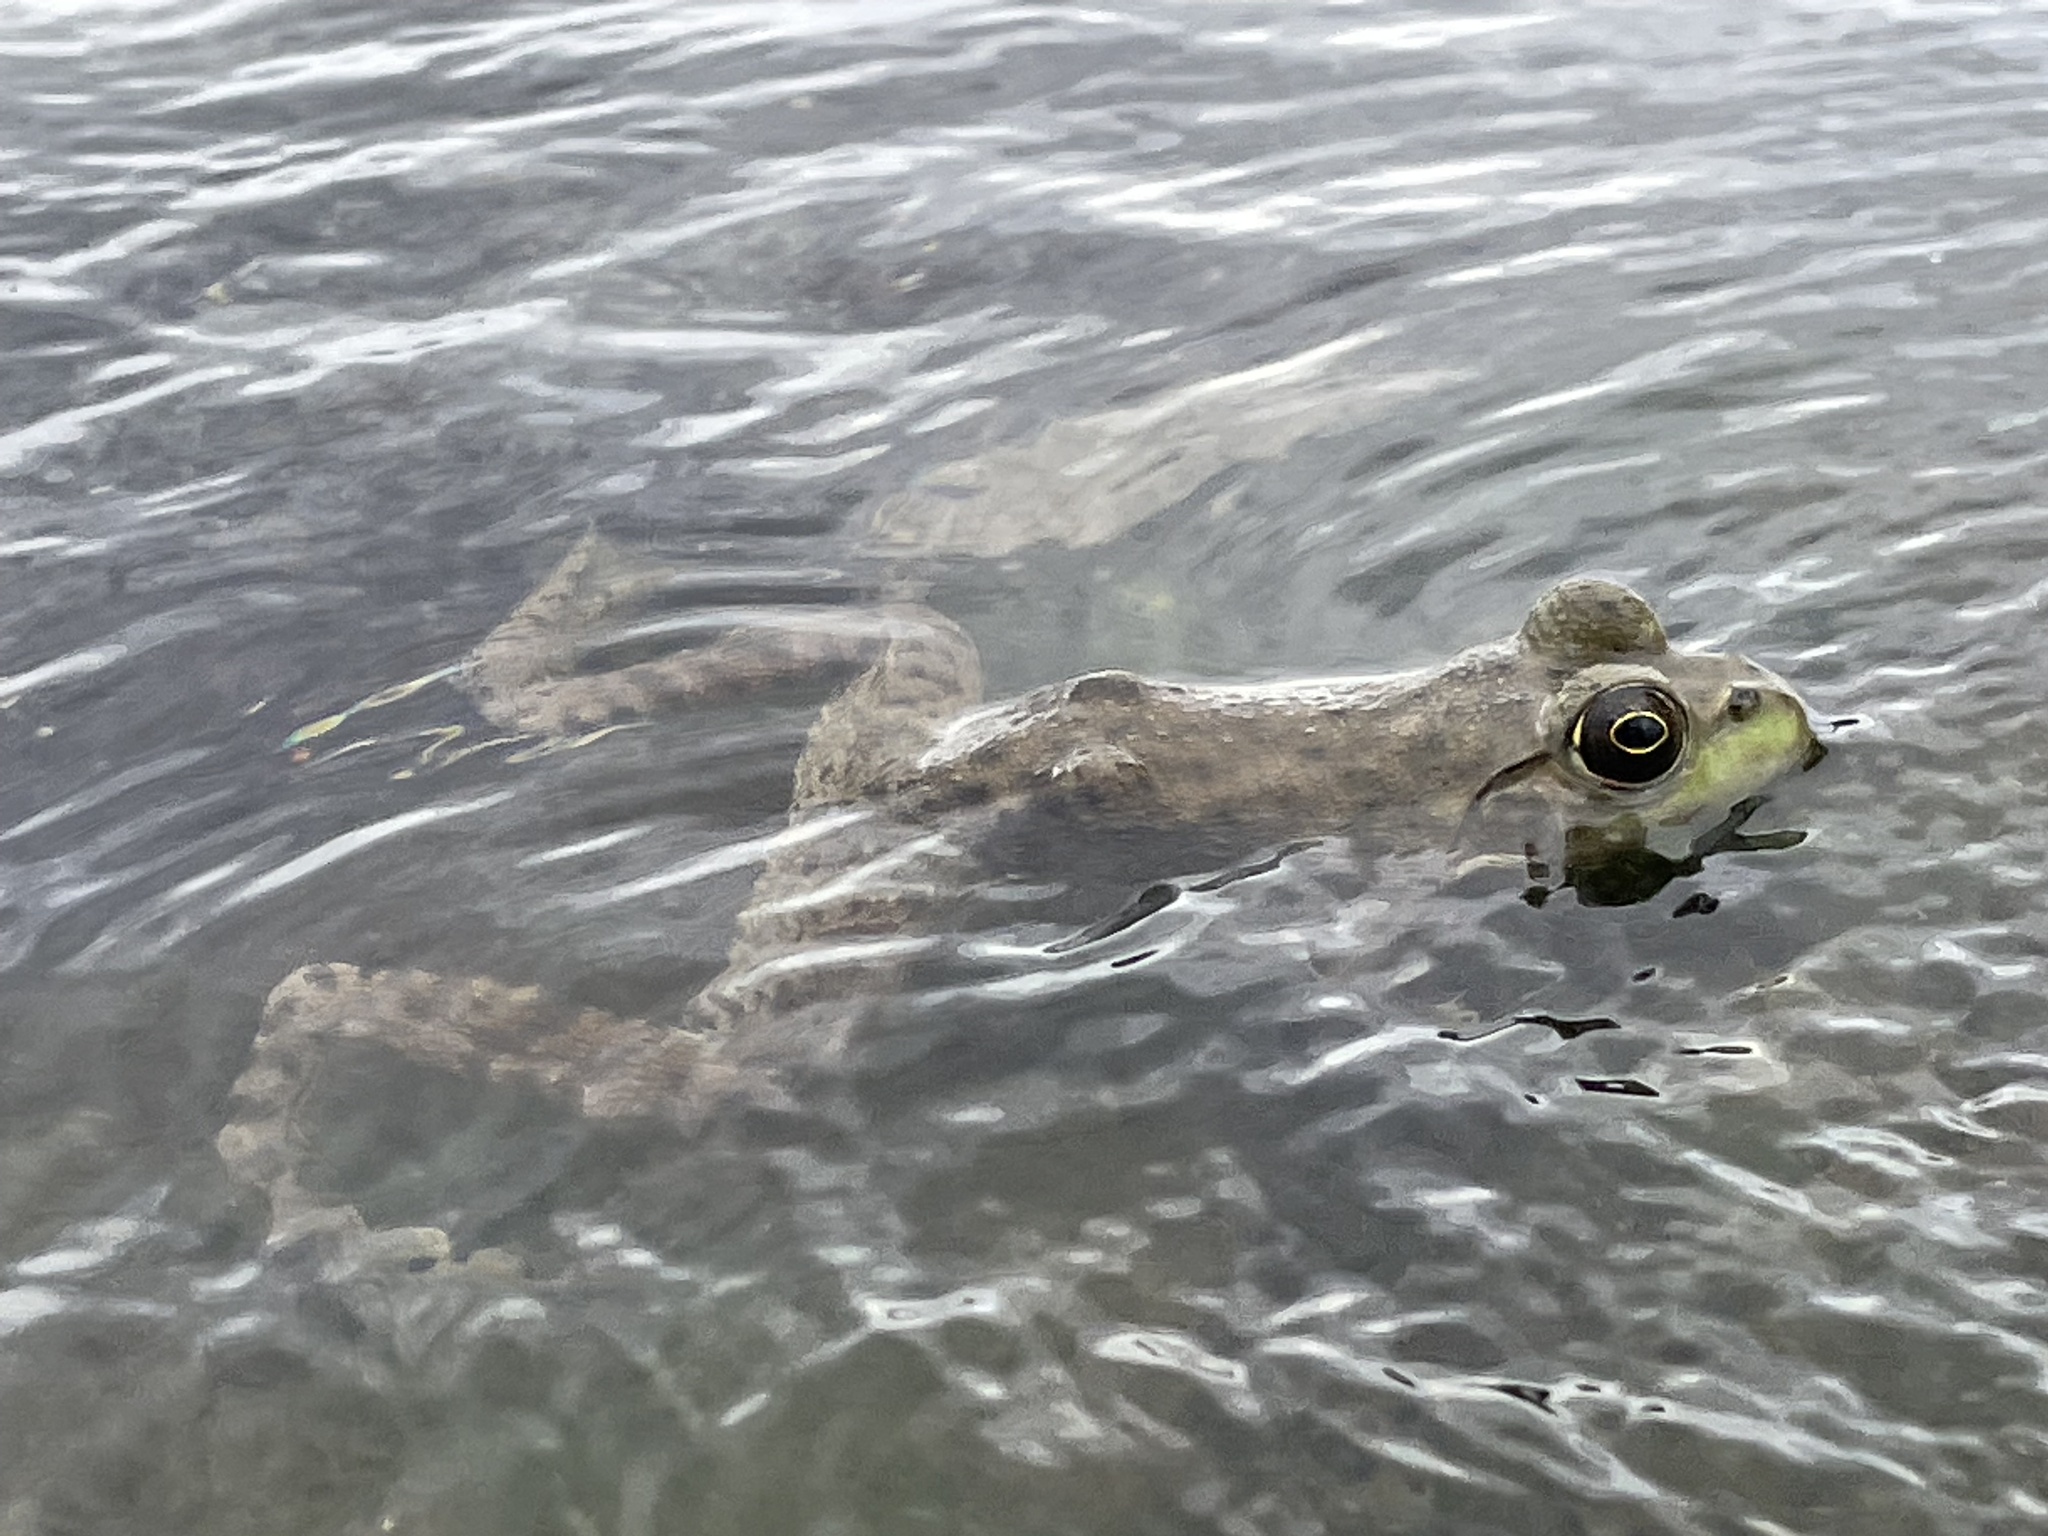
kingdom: Animalia
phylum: Chordata
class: Amphibia
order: Anura
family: Ranidae
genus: Lithobates
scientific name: Lithobates catesbeianus
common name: American bullfrog
